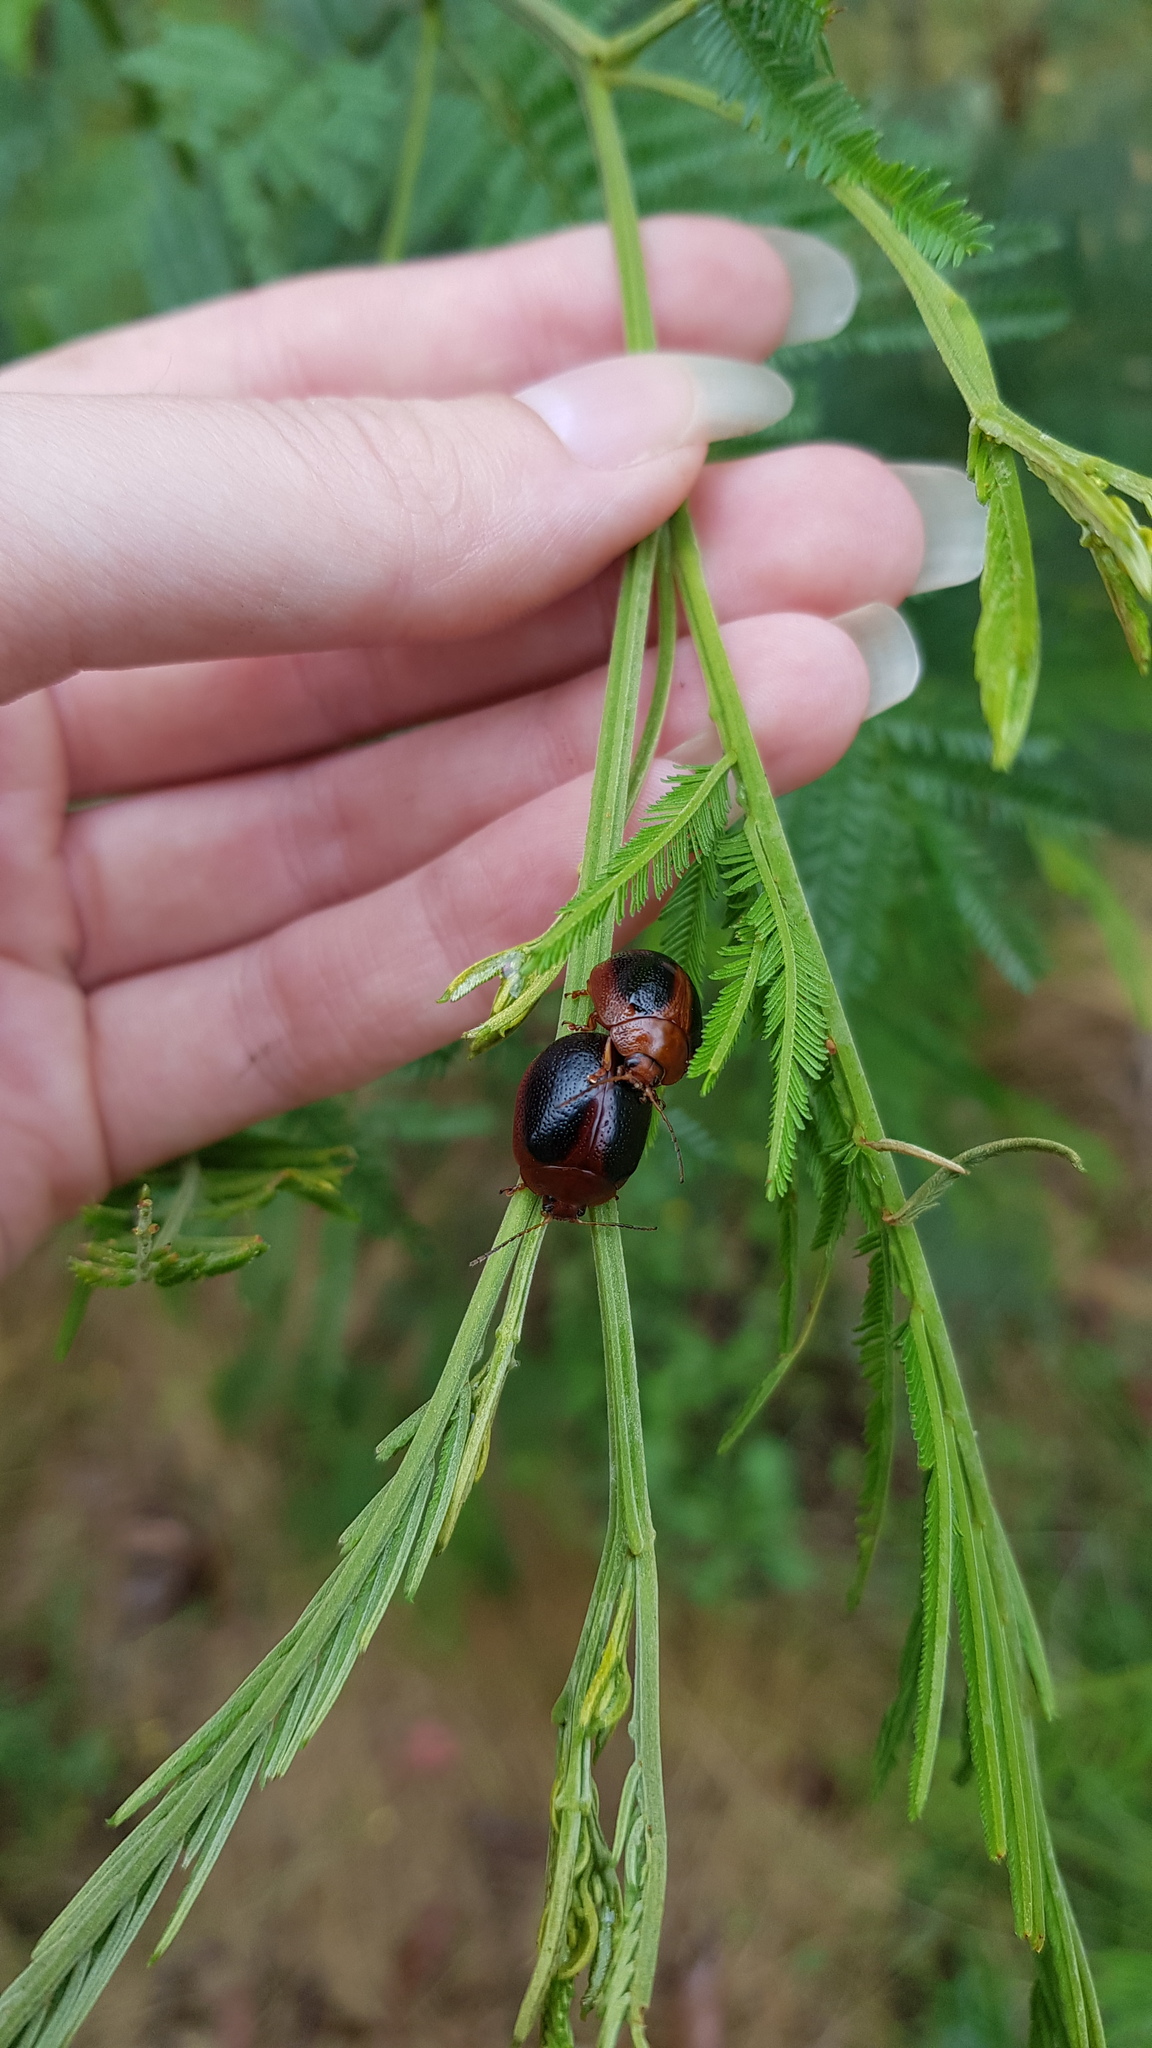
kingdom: Animalia
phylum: Arthropoda
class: Insecta
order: Coleoptera
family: Chrysomelidae
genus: Dicranosterna
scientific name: Dicranosterna
